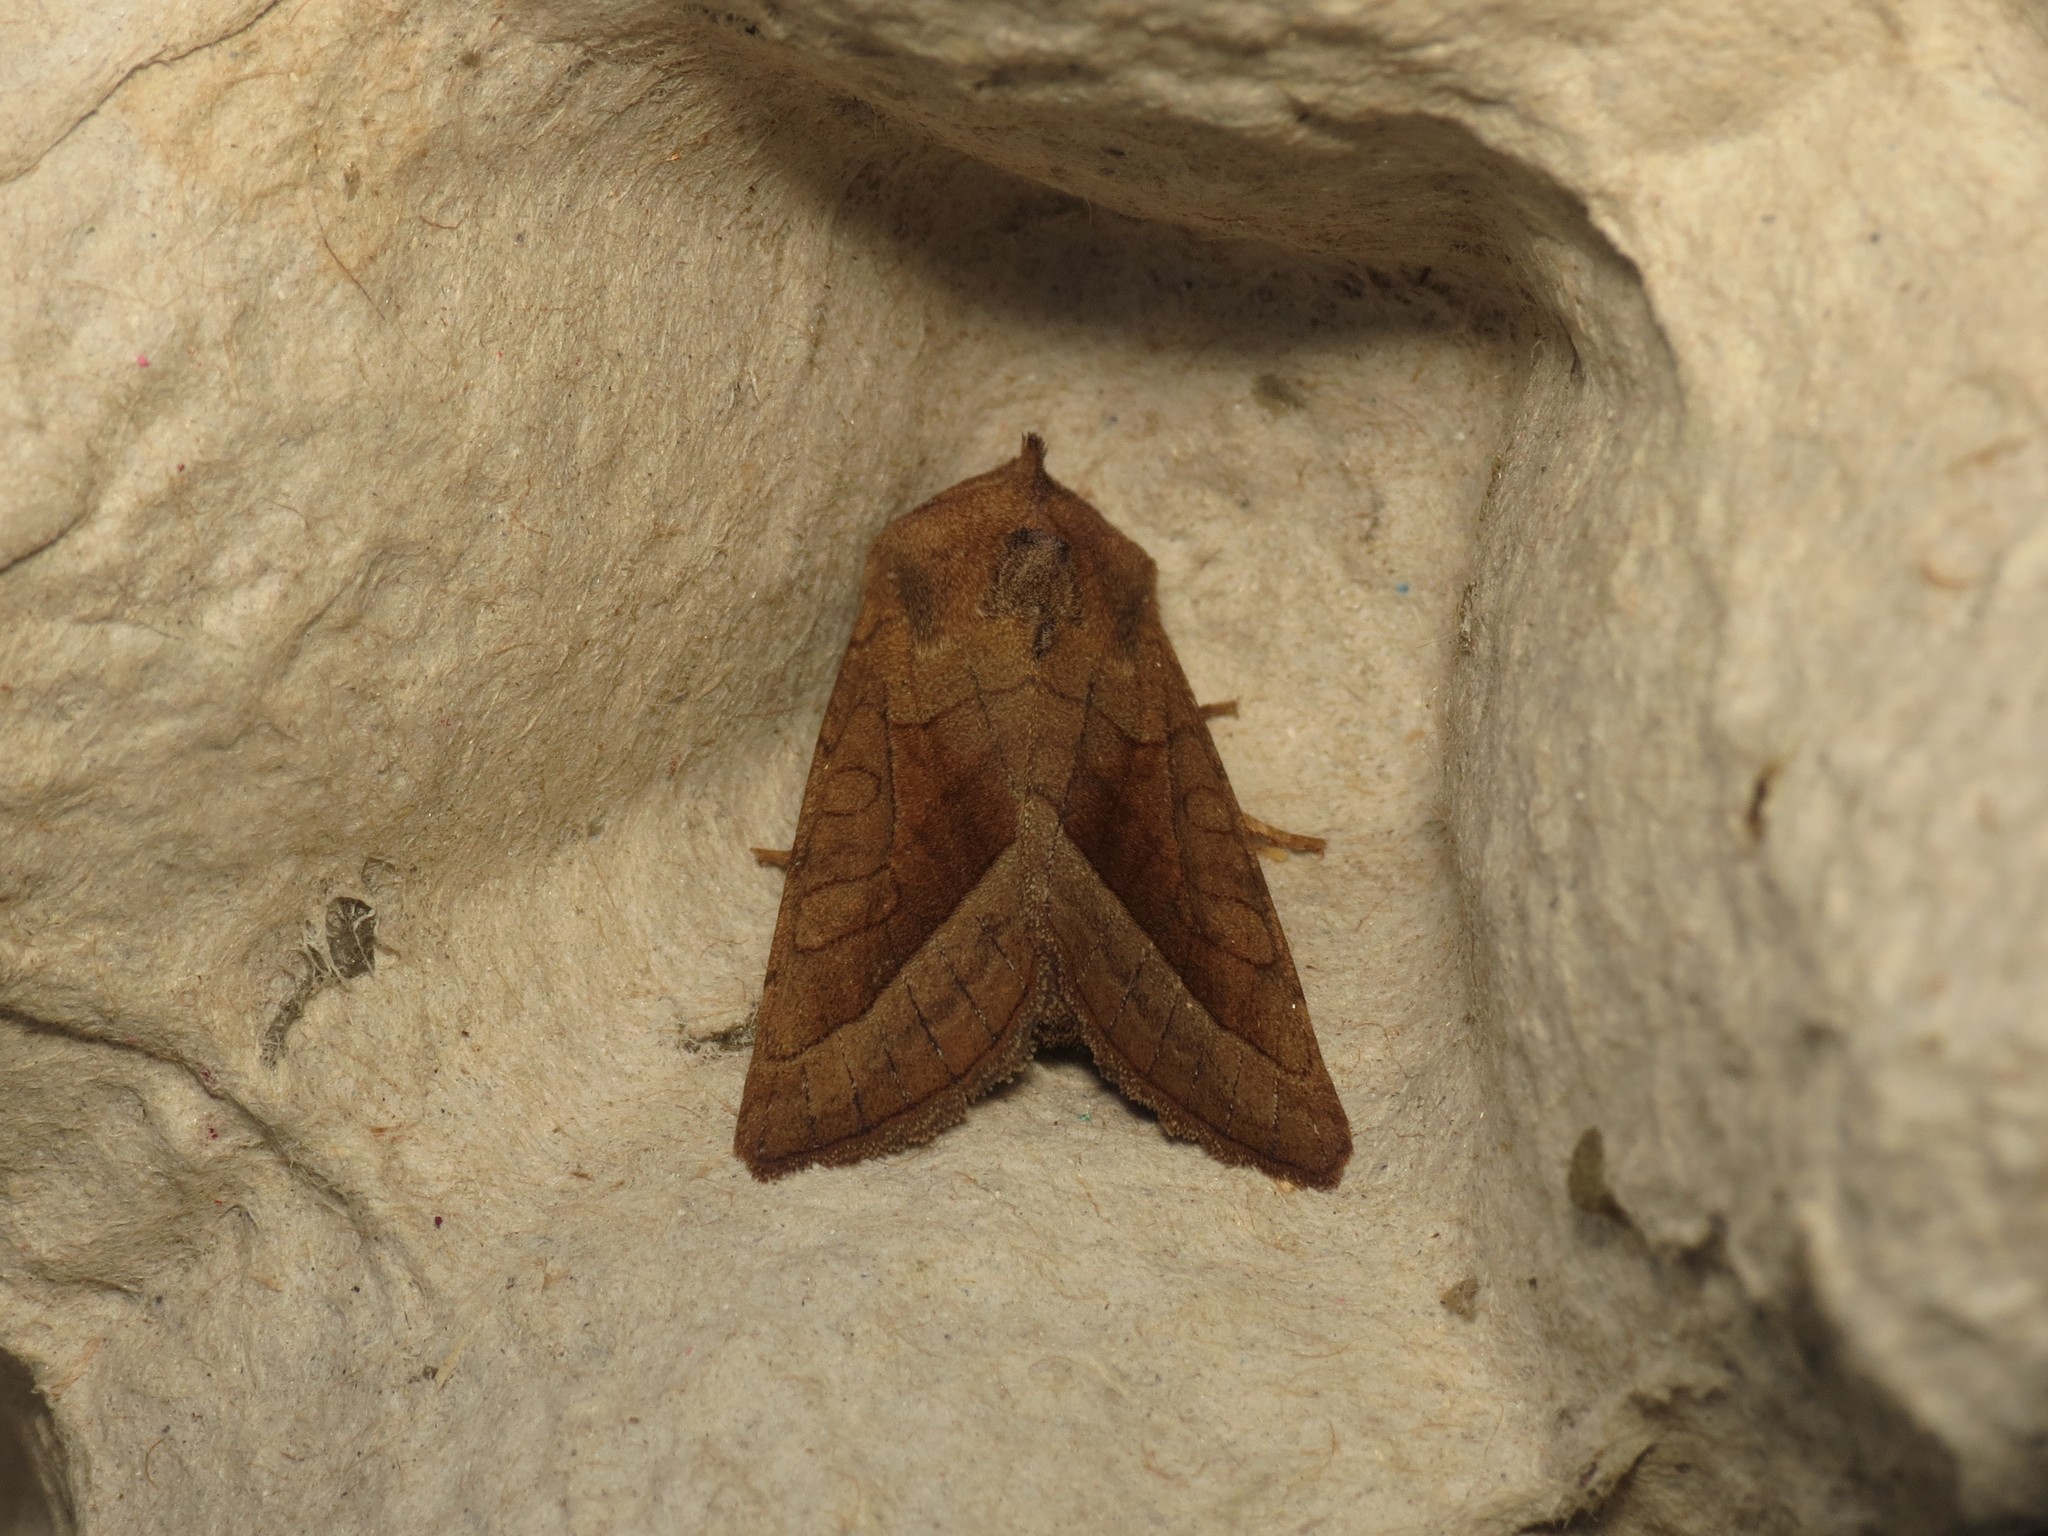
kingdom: Animalia
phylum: Arthropoda
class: Insecta
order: Lepidoptera
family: Noctuidae
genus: Hydraecia
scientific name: Hydraecia micacea
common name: Rosy rustic
